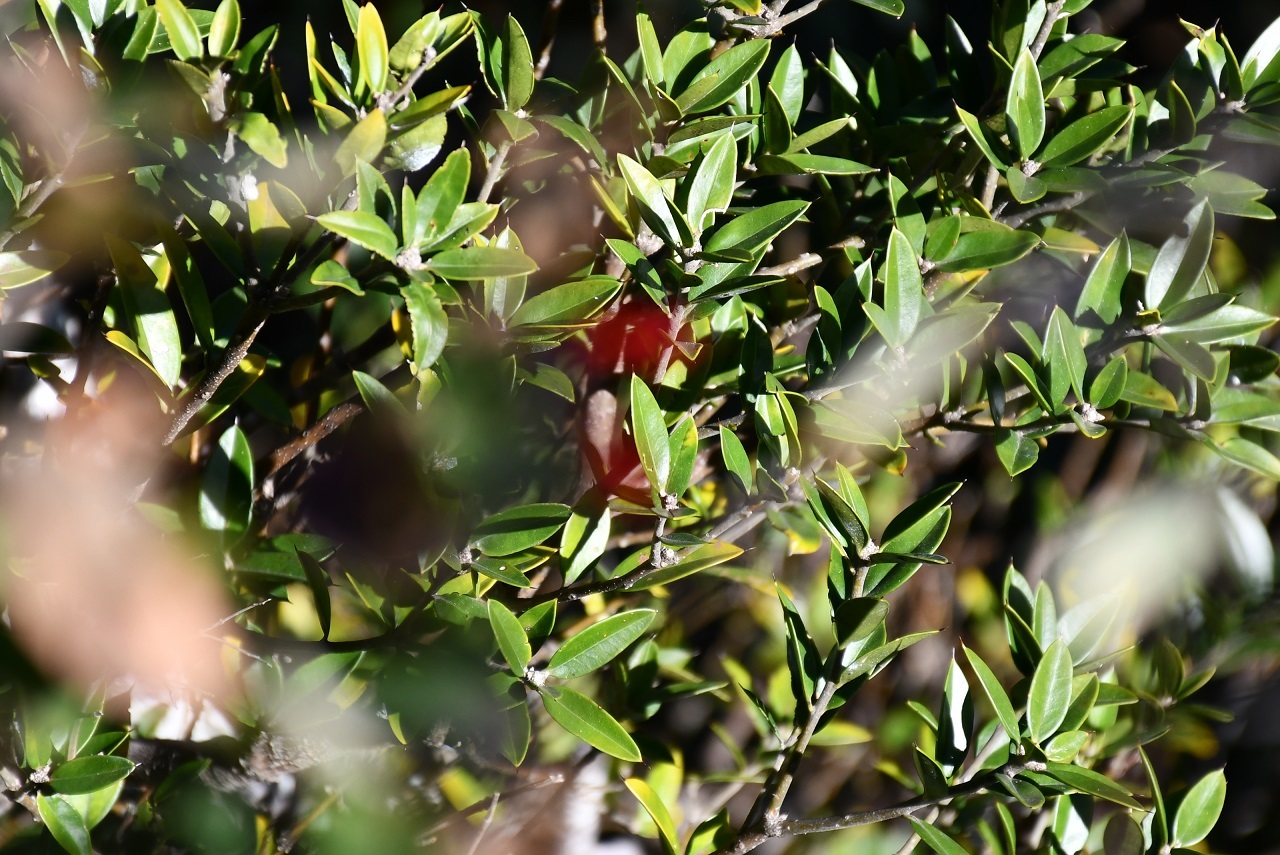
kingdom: Plantae
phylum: Tracheophyta
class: Magnoliopsida
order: Ericales
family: Primulaceae
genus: Bonellia
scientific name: Bonellia macrocarpa
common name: Primrose
